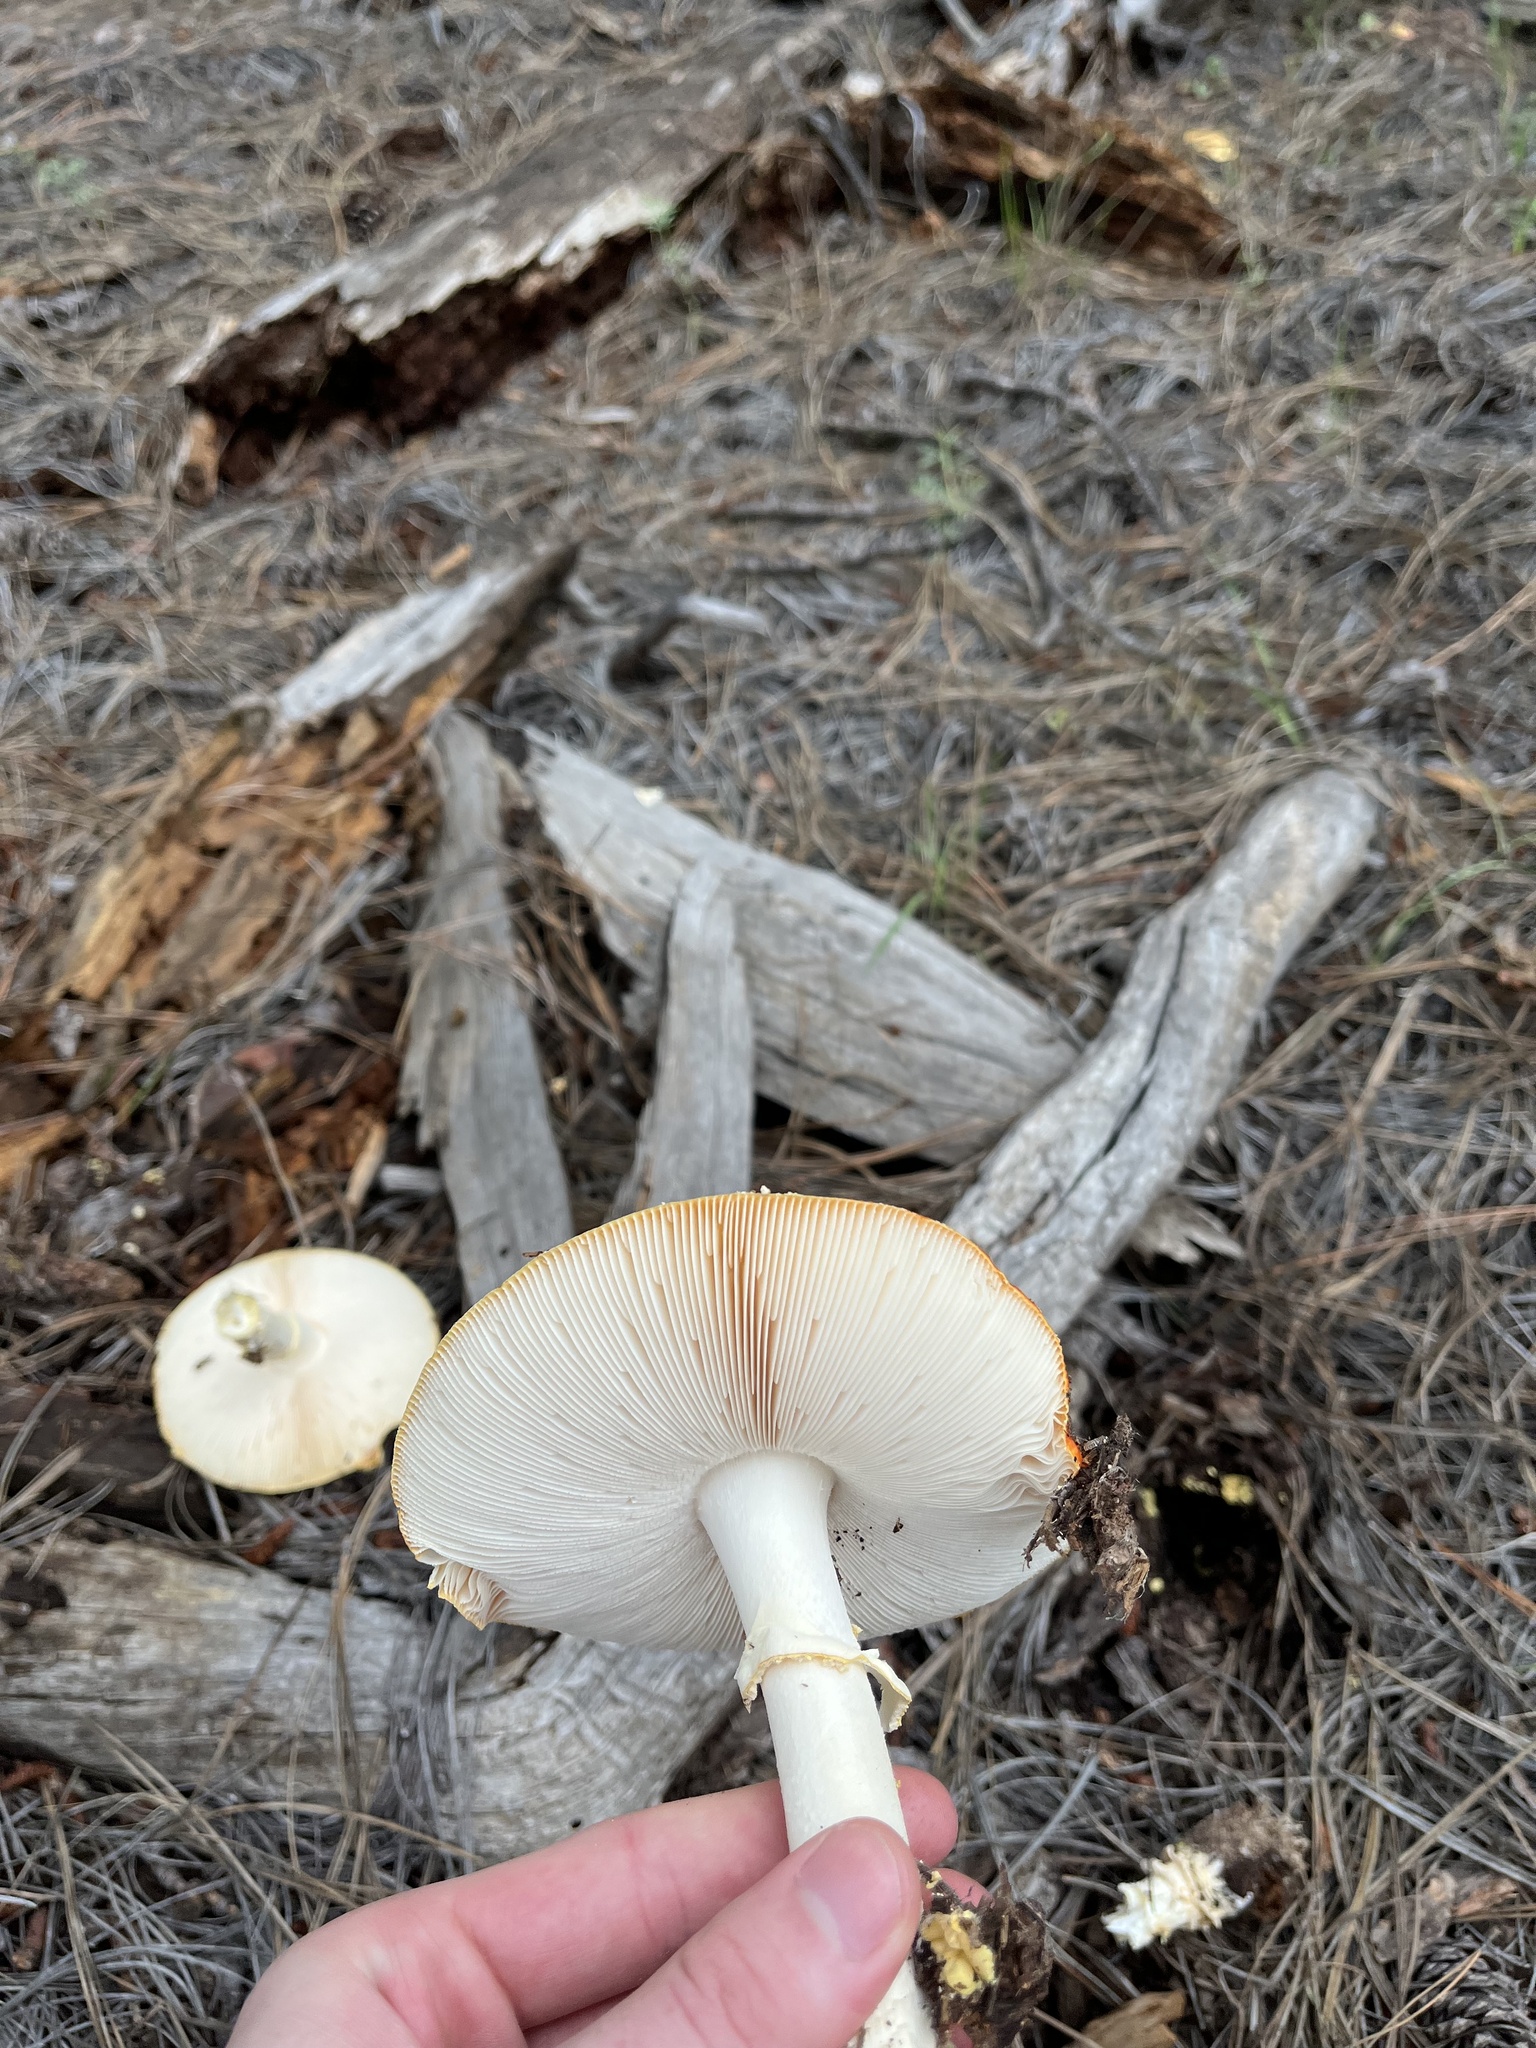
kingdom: Fungi
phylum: Basidiomycota
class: Agaricomycetes
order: Agaricales
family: Amanitaceae
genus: Amanita
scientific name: Amanita muscaria
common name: Fly agaric
